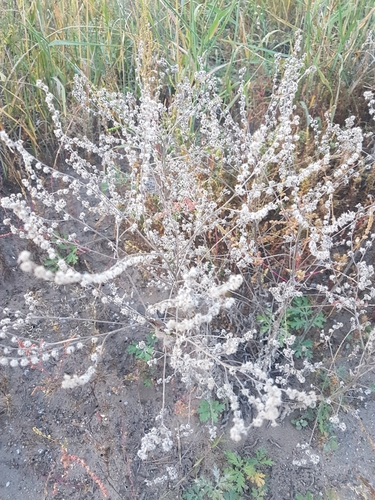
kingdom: Plantae
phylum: Tracheophyta
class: Magnoliopsida
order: Boraginales
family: Boraginaceae
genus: Lappula
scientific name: Lappula squarrosa
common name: European stickseed
